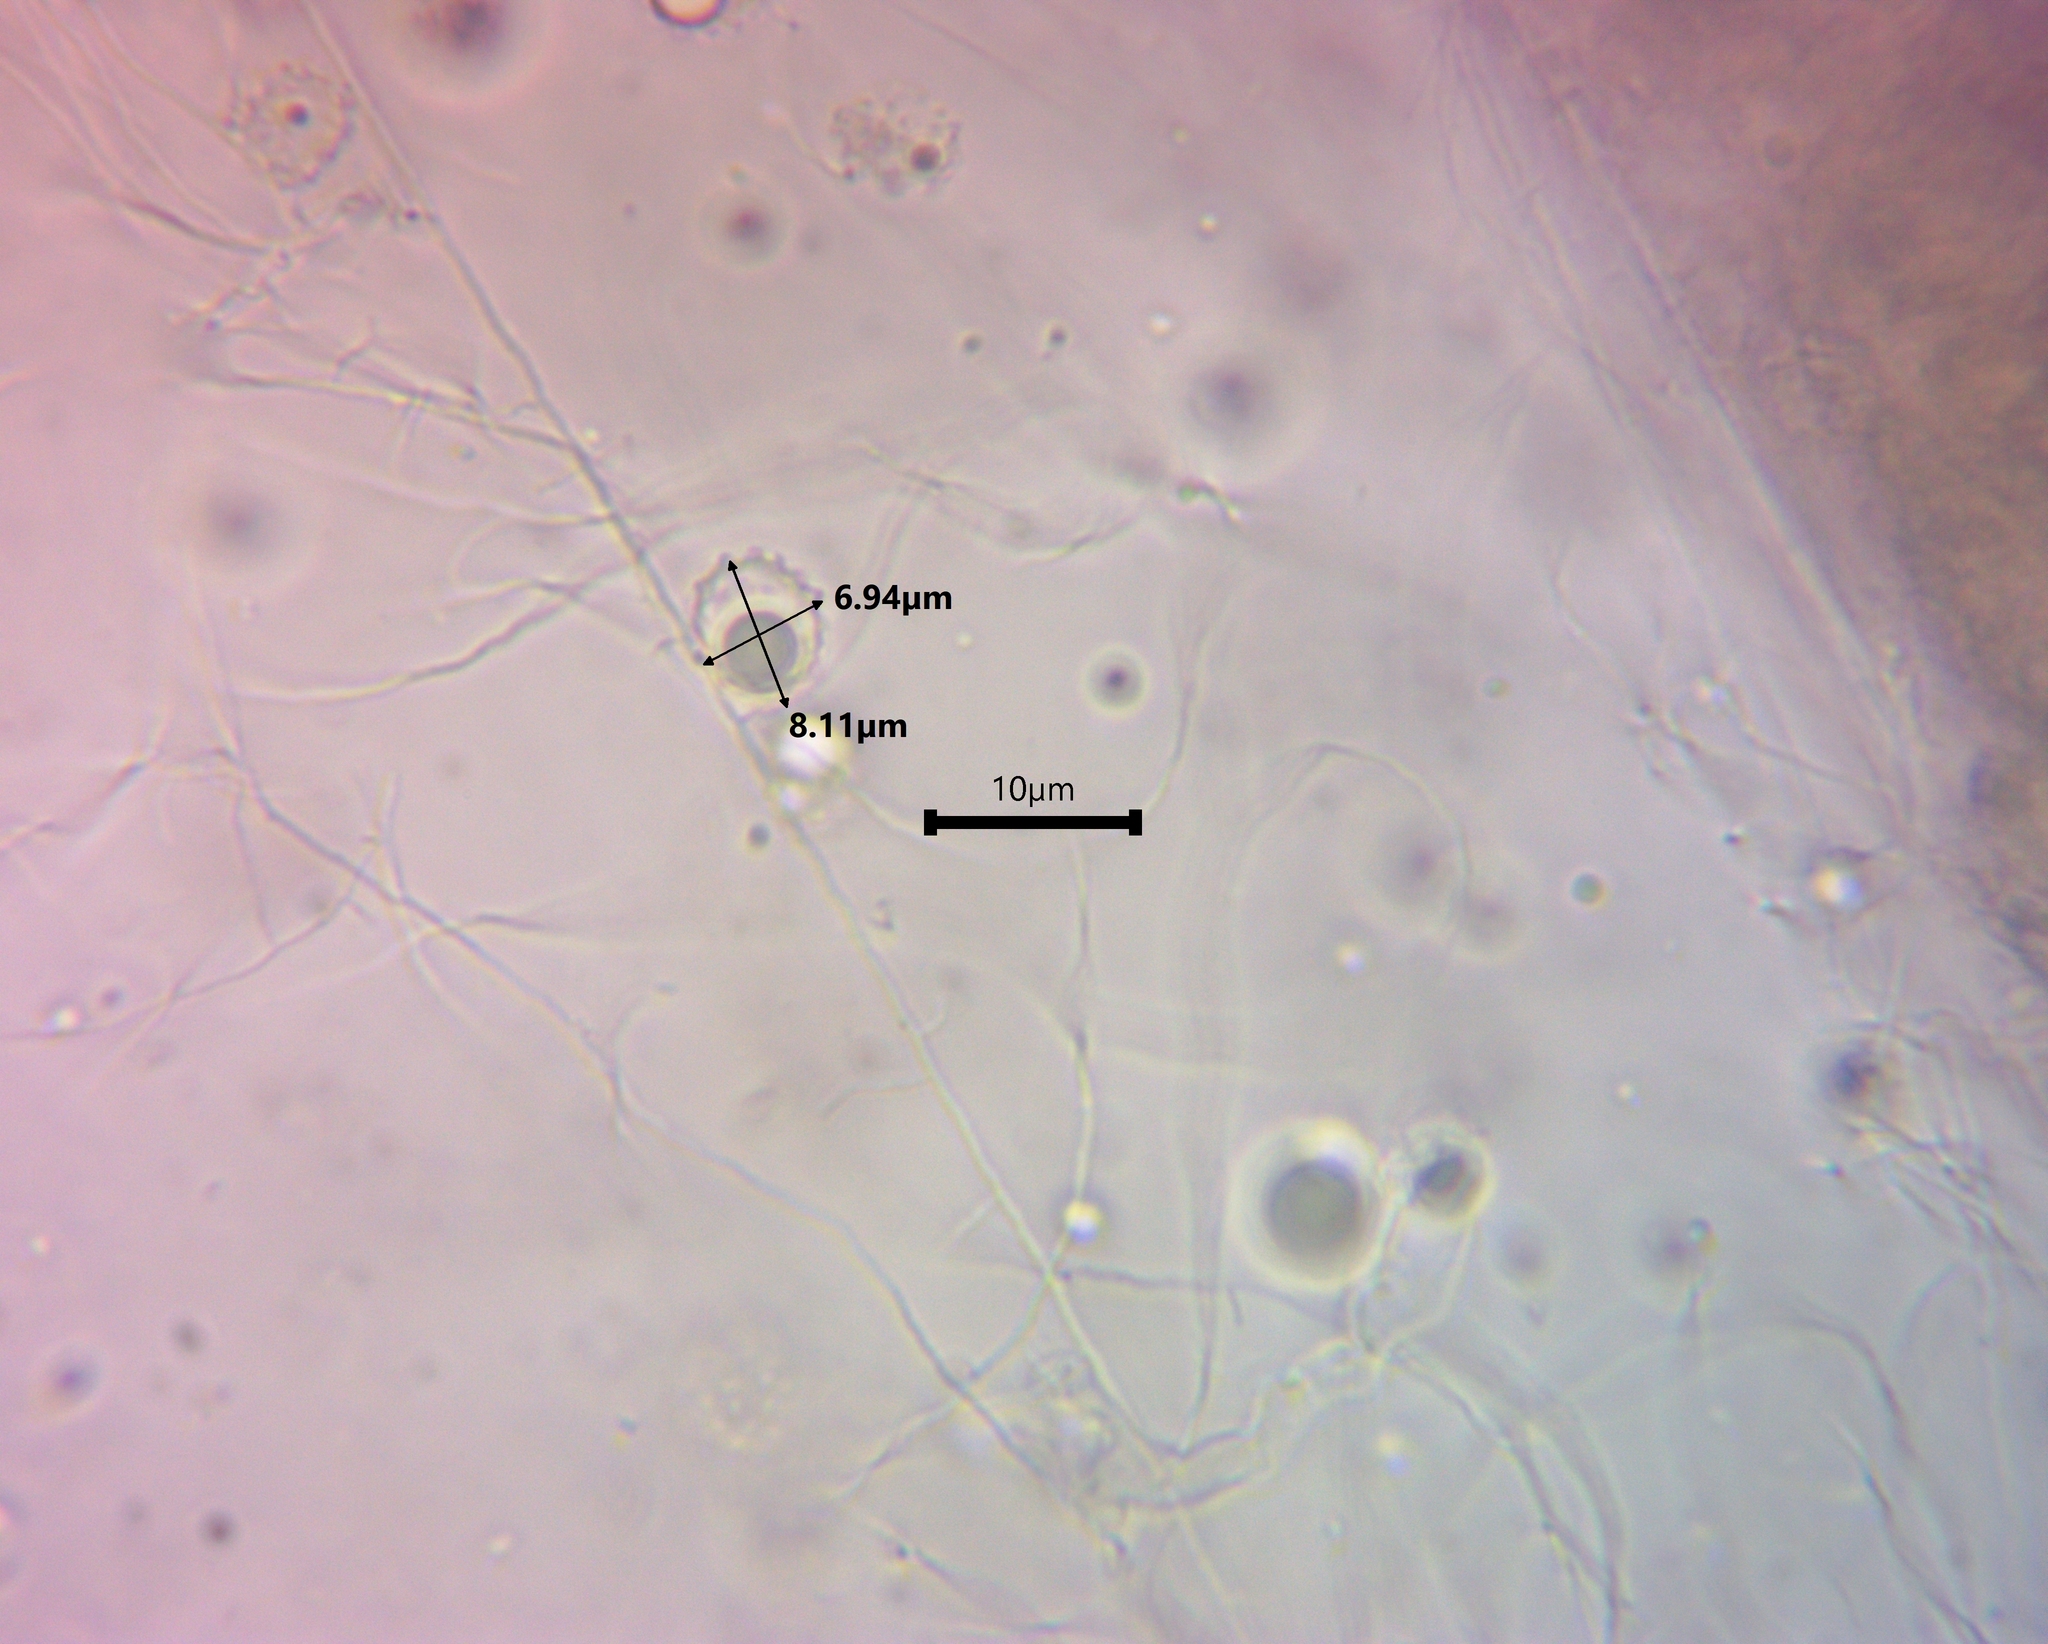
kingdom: Fungi
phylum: Basidiomycota
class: Agaricomycetes
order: Agaricales
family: Physalacriaceae
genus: Rhodotus
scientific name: Rhodotus palmatus
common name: Wrinkled peach
